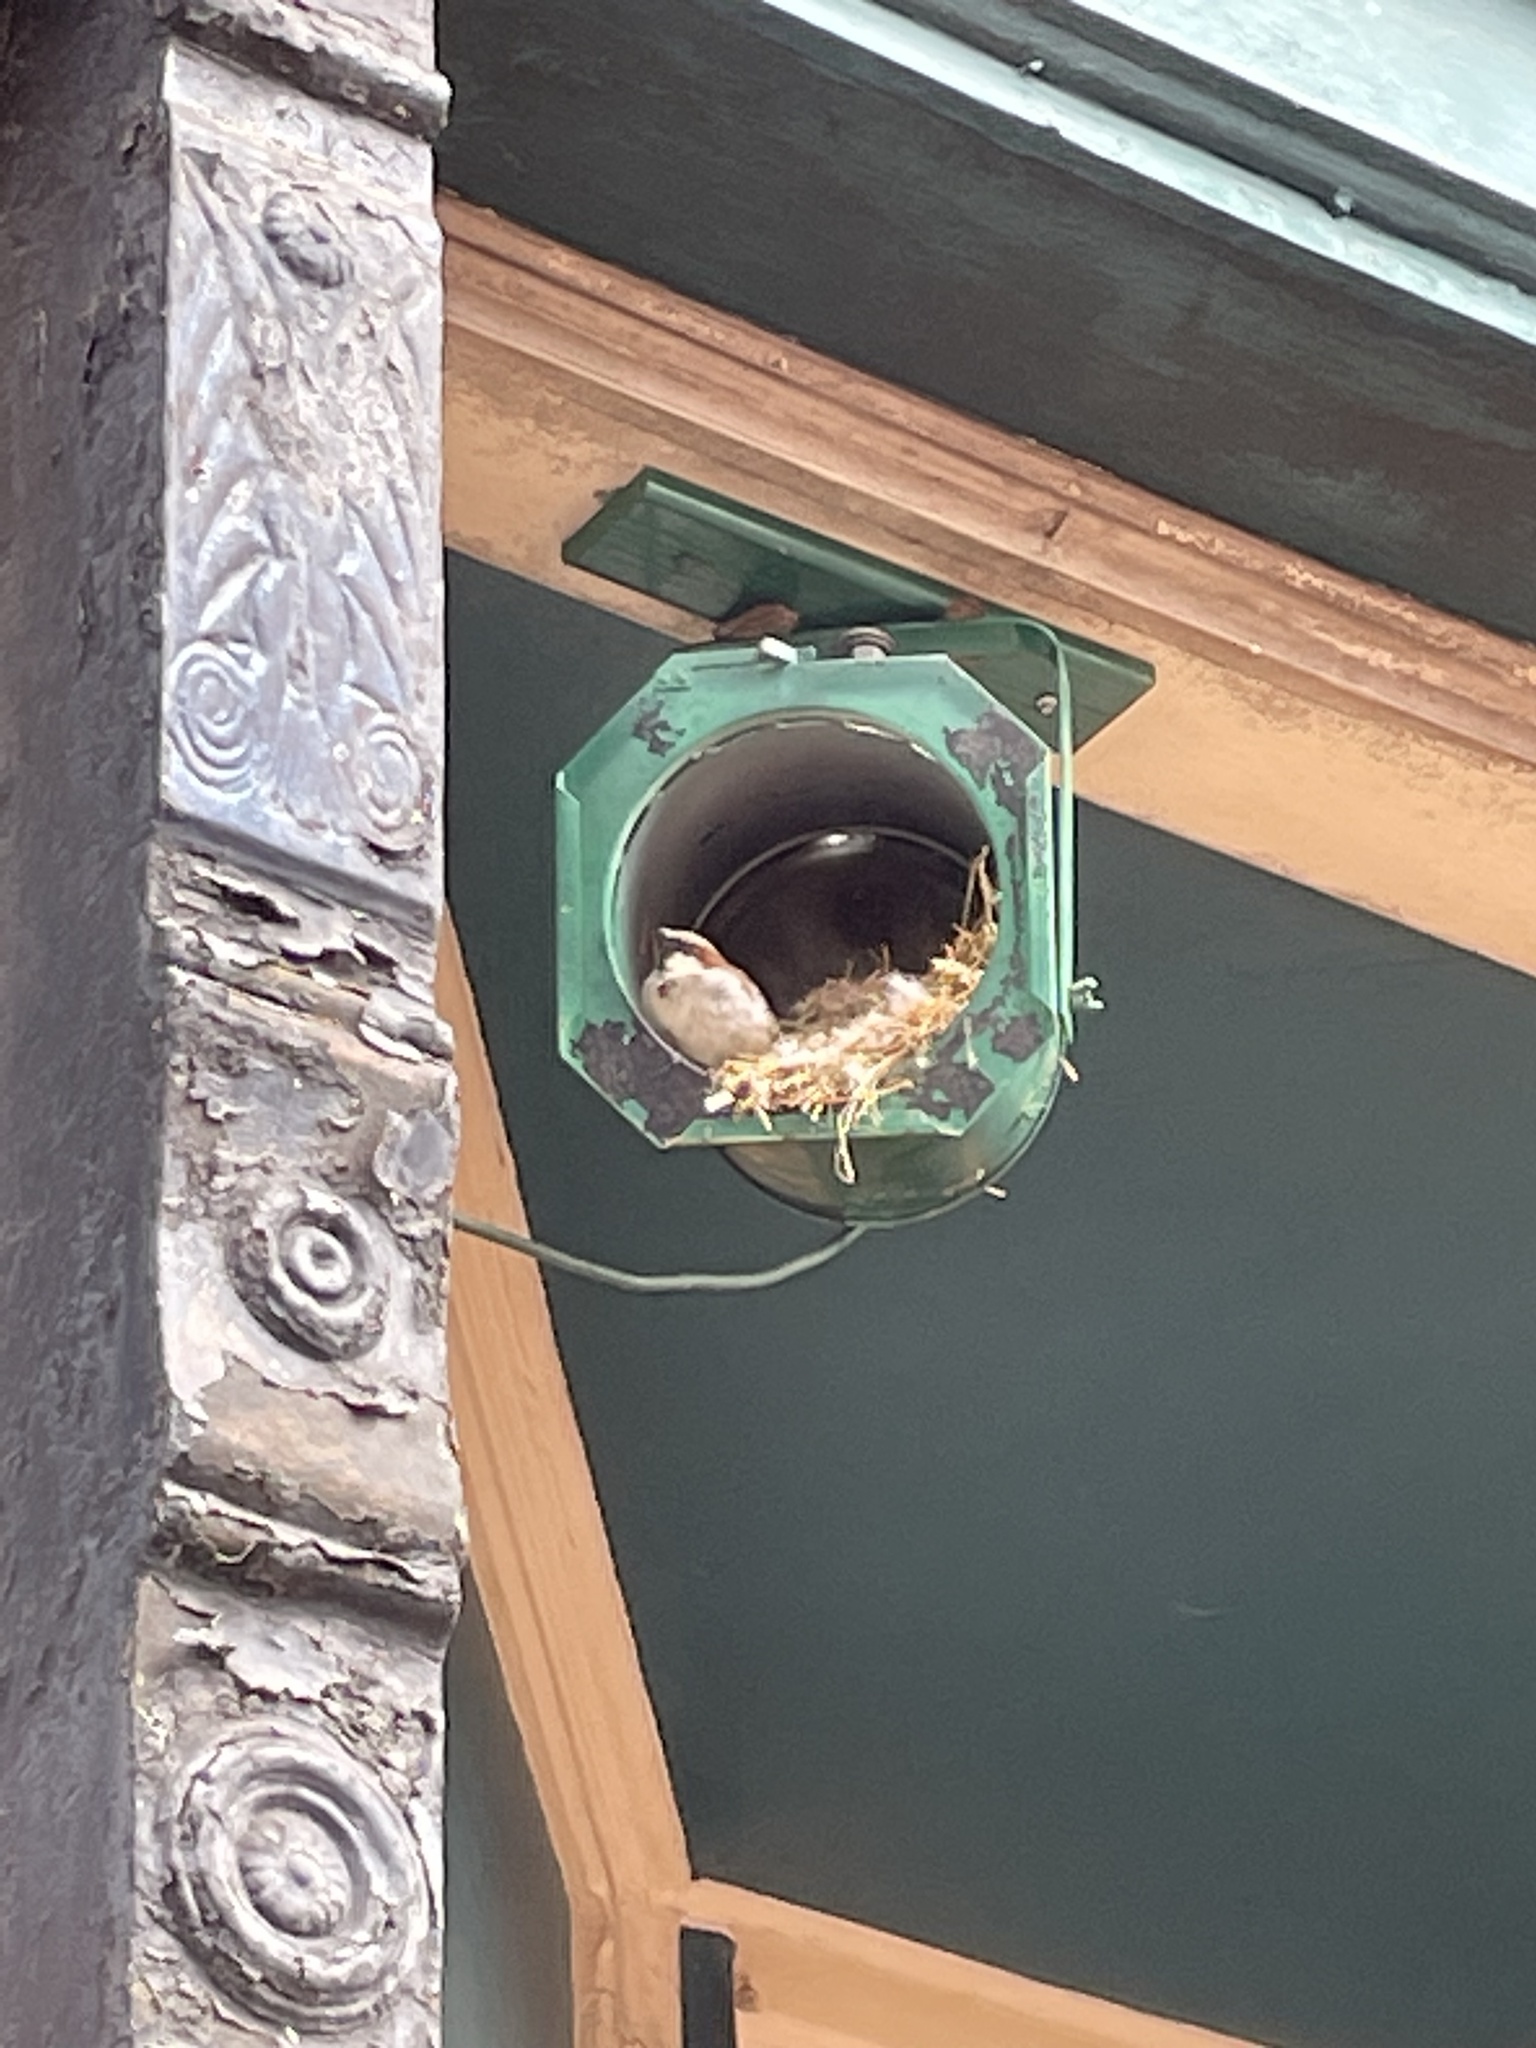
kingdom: Animalia
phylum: Chordata
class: Aves
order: Passeriformes
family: Passeridae
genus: Passer
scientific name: Passer domesticus
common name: House sparrow
